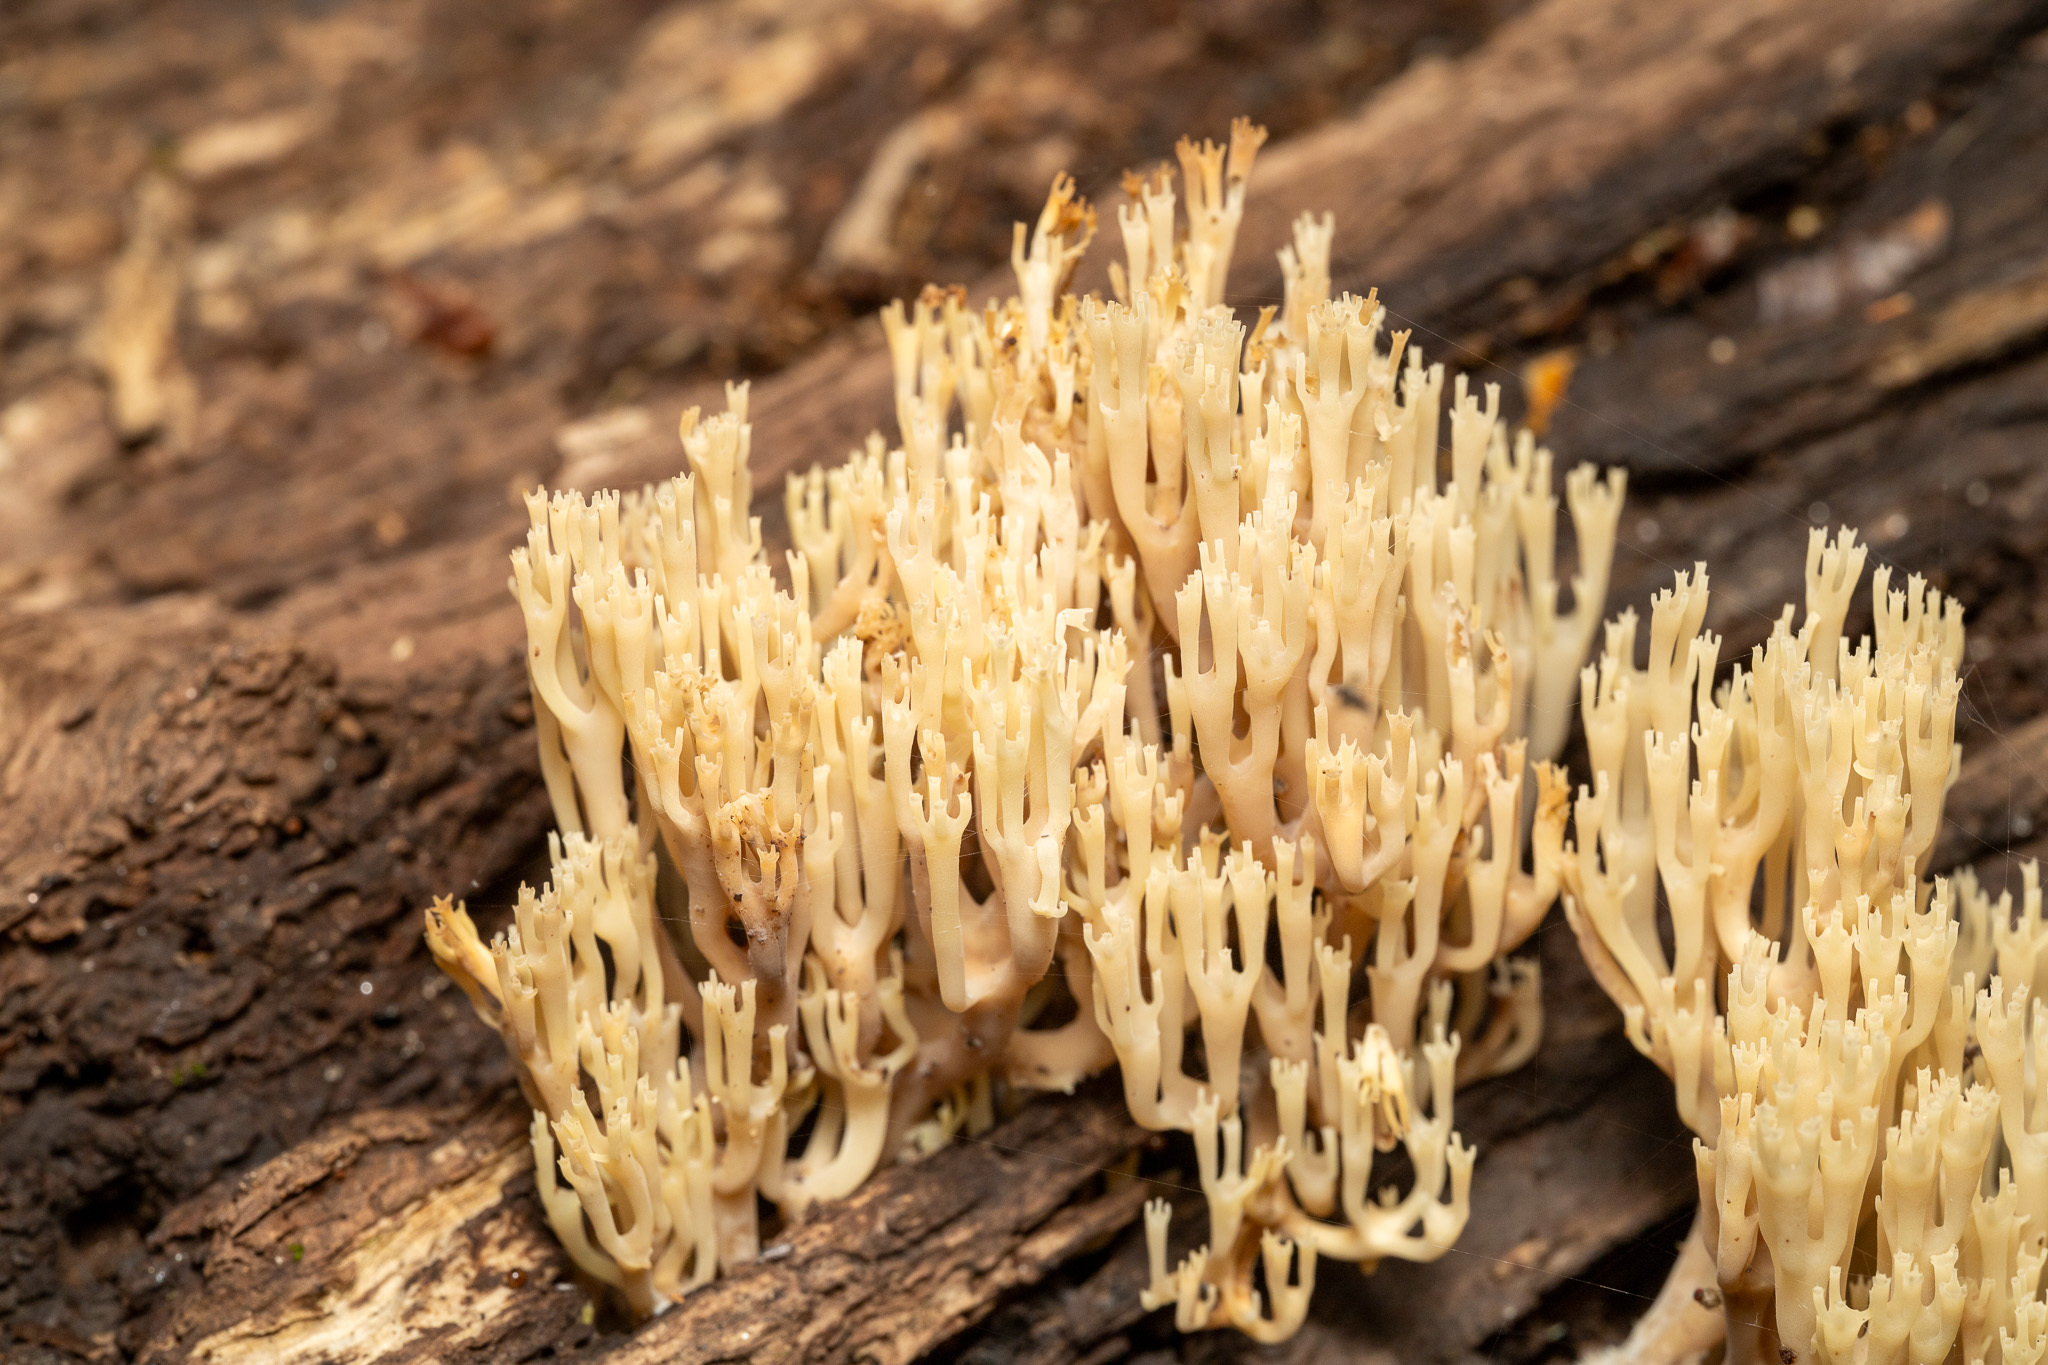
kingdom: Fungi
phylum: Basidiomycota
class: Agaricomycetes
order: Russulales
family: Auriscalpiaceae
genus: Artomyces
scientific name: Artomyces pyxidatus
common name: Crown-tipped coral fungus
